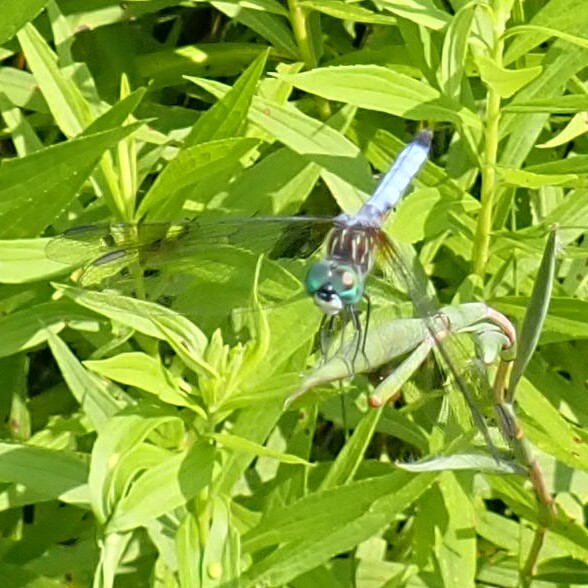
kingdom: Animalia
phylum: Arthropoda
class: Insecta
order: Odonata
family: Libellulidae
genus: Pachydiplax
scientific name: Pachydiplax longipennis
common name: Blue dasher
